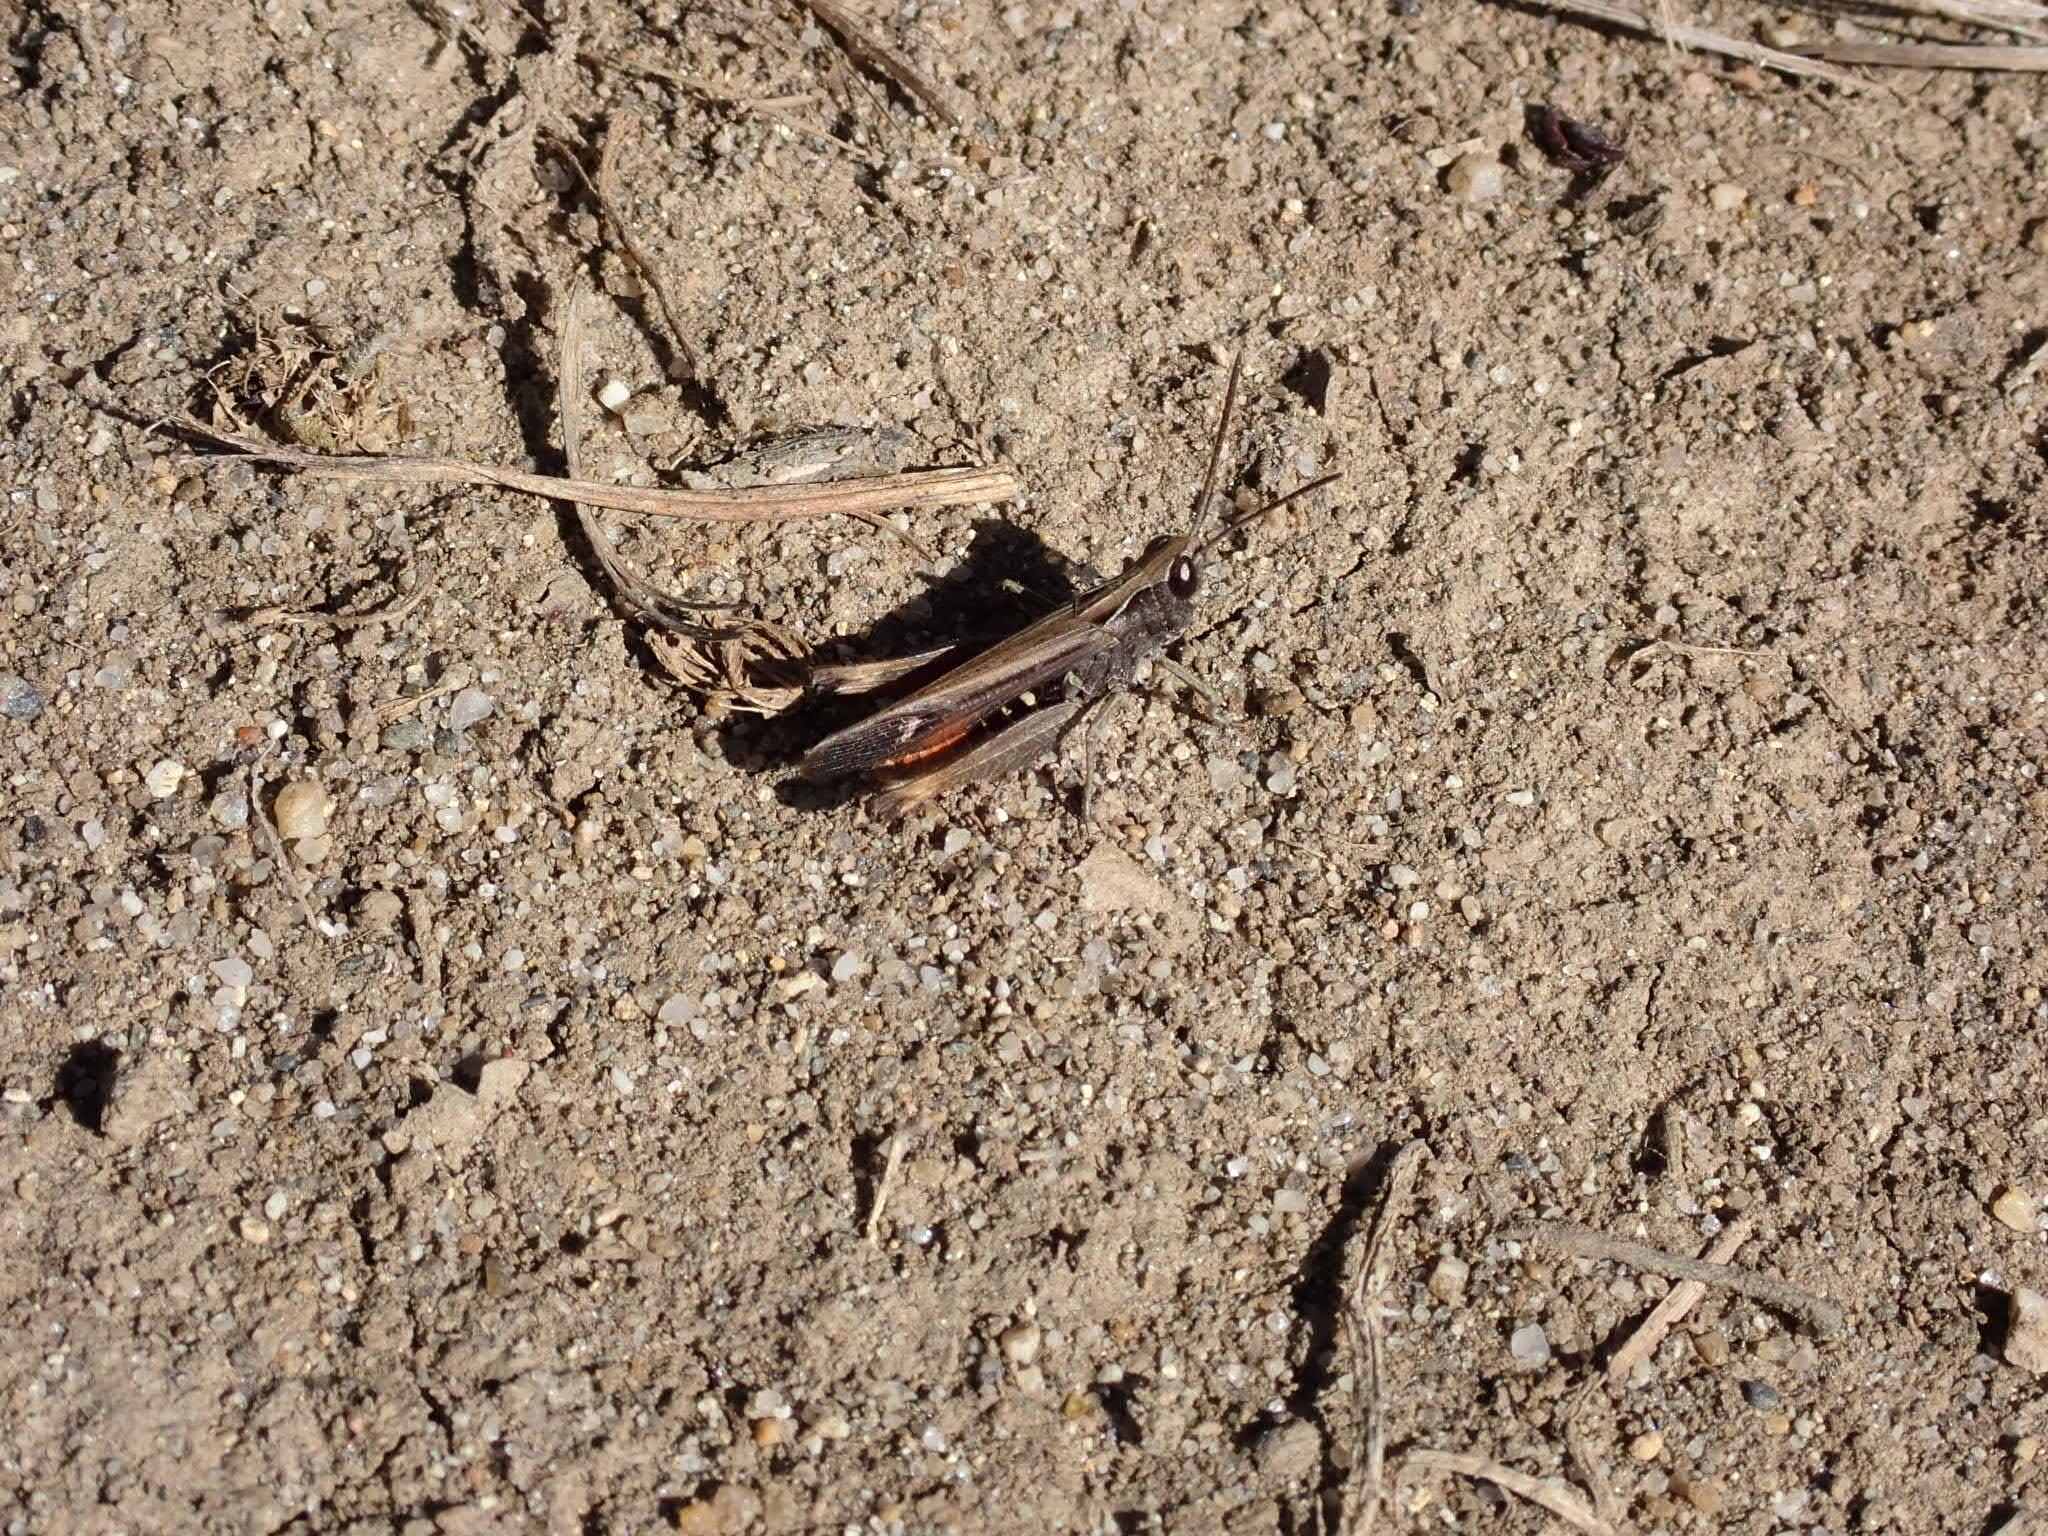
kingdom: Animalia
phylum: Arthropoda
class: Insecta
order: Orthoptera
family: Acrididae
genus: Omocestus
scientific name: Omocestus rufipes
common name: Woodland grasshopper
